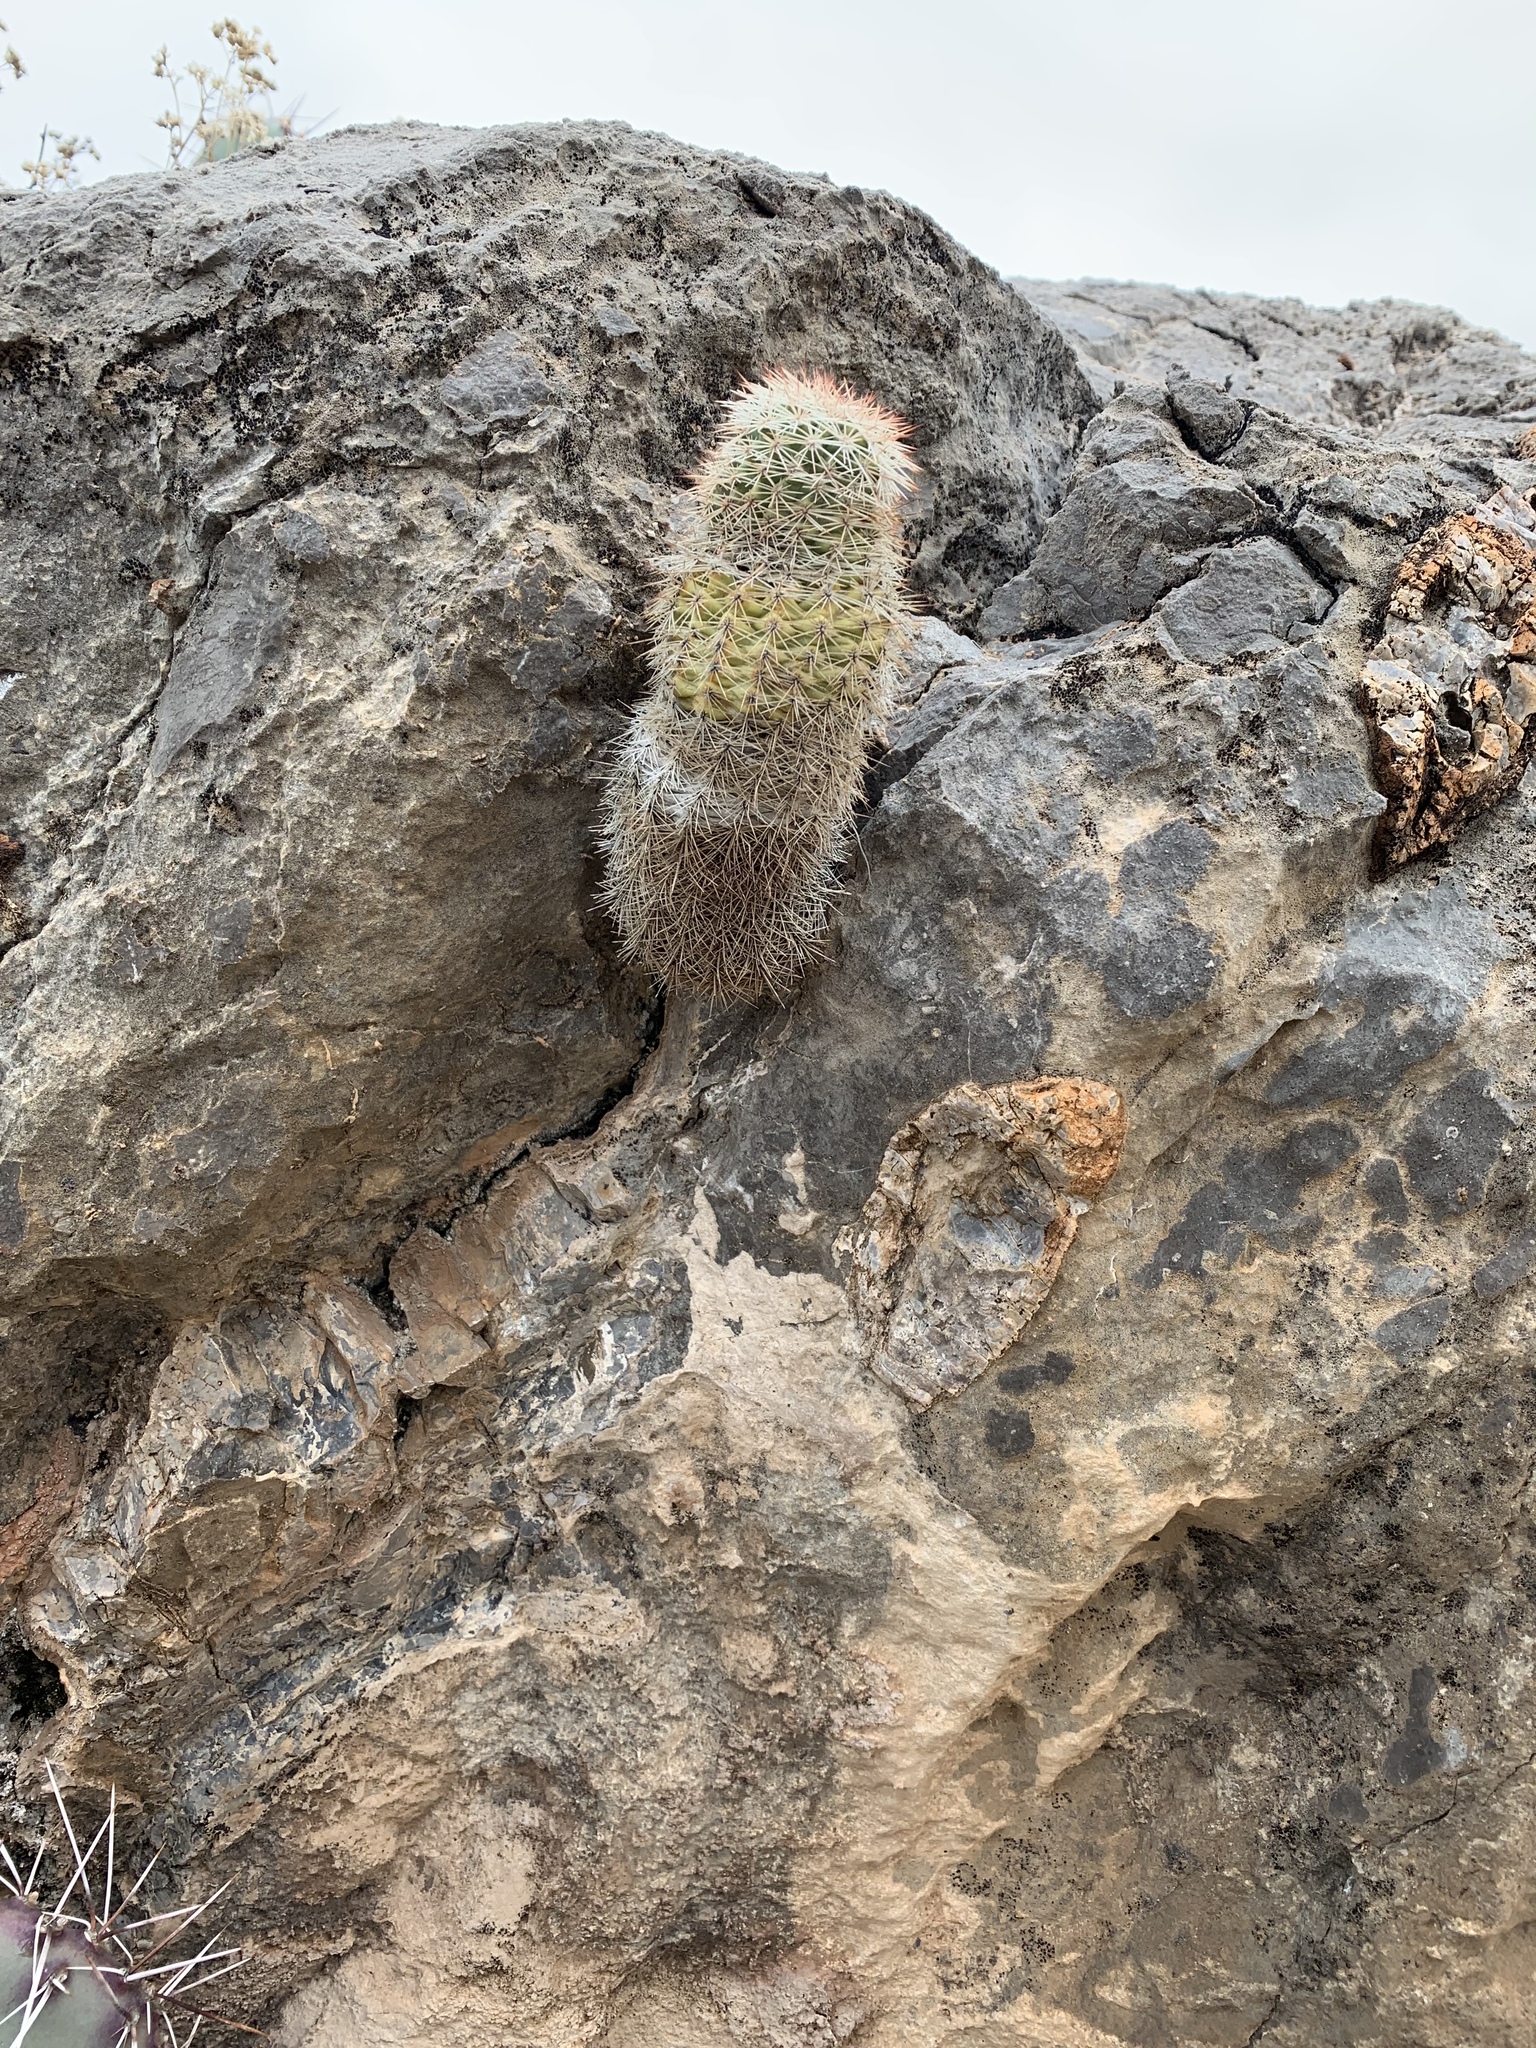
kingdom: Plantae
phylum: Tracheophyta
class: Magnoliopsida
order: Caryophyllales
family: Cactaceae
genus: Echinocereus
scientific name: Echinocereus dasyacanthus
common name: Spiny hedgehog cactus
